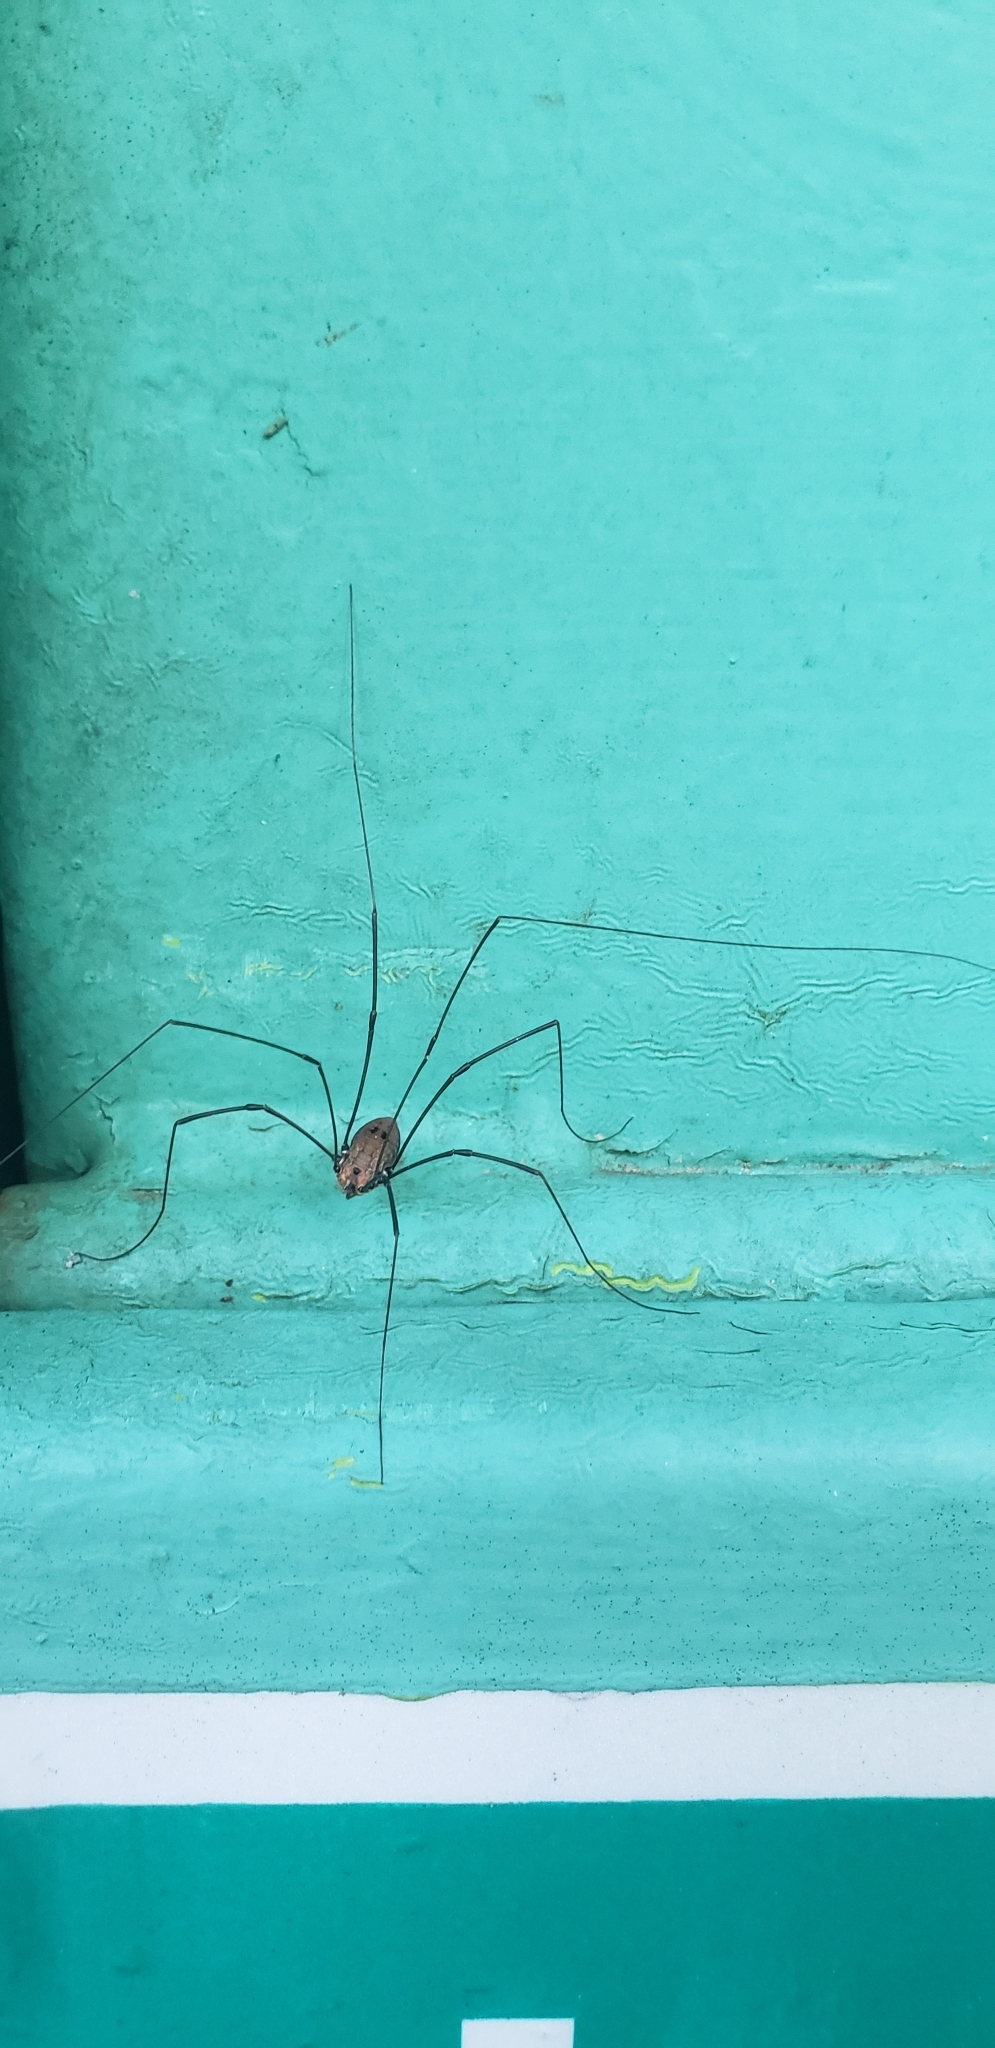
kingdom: Animalia
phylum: Arthropoda
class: Arachnida
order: Opiliones
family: Sclerosomatidae
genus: Leiobunum
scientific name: Leiobunum nigropalpi
